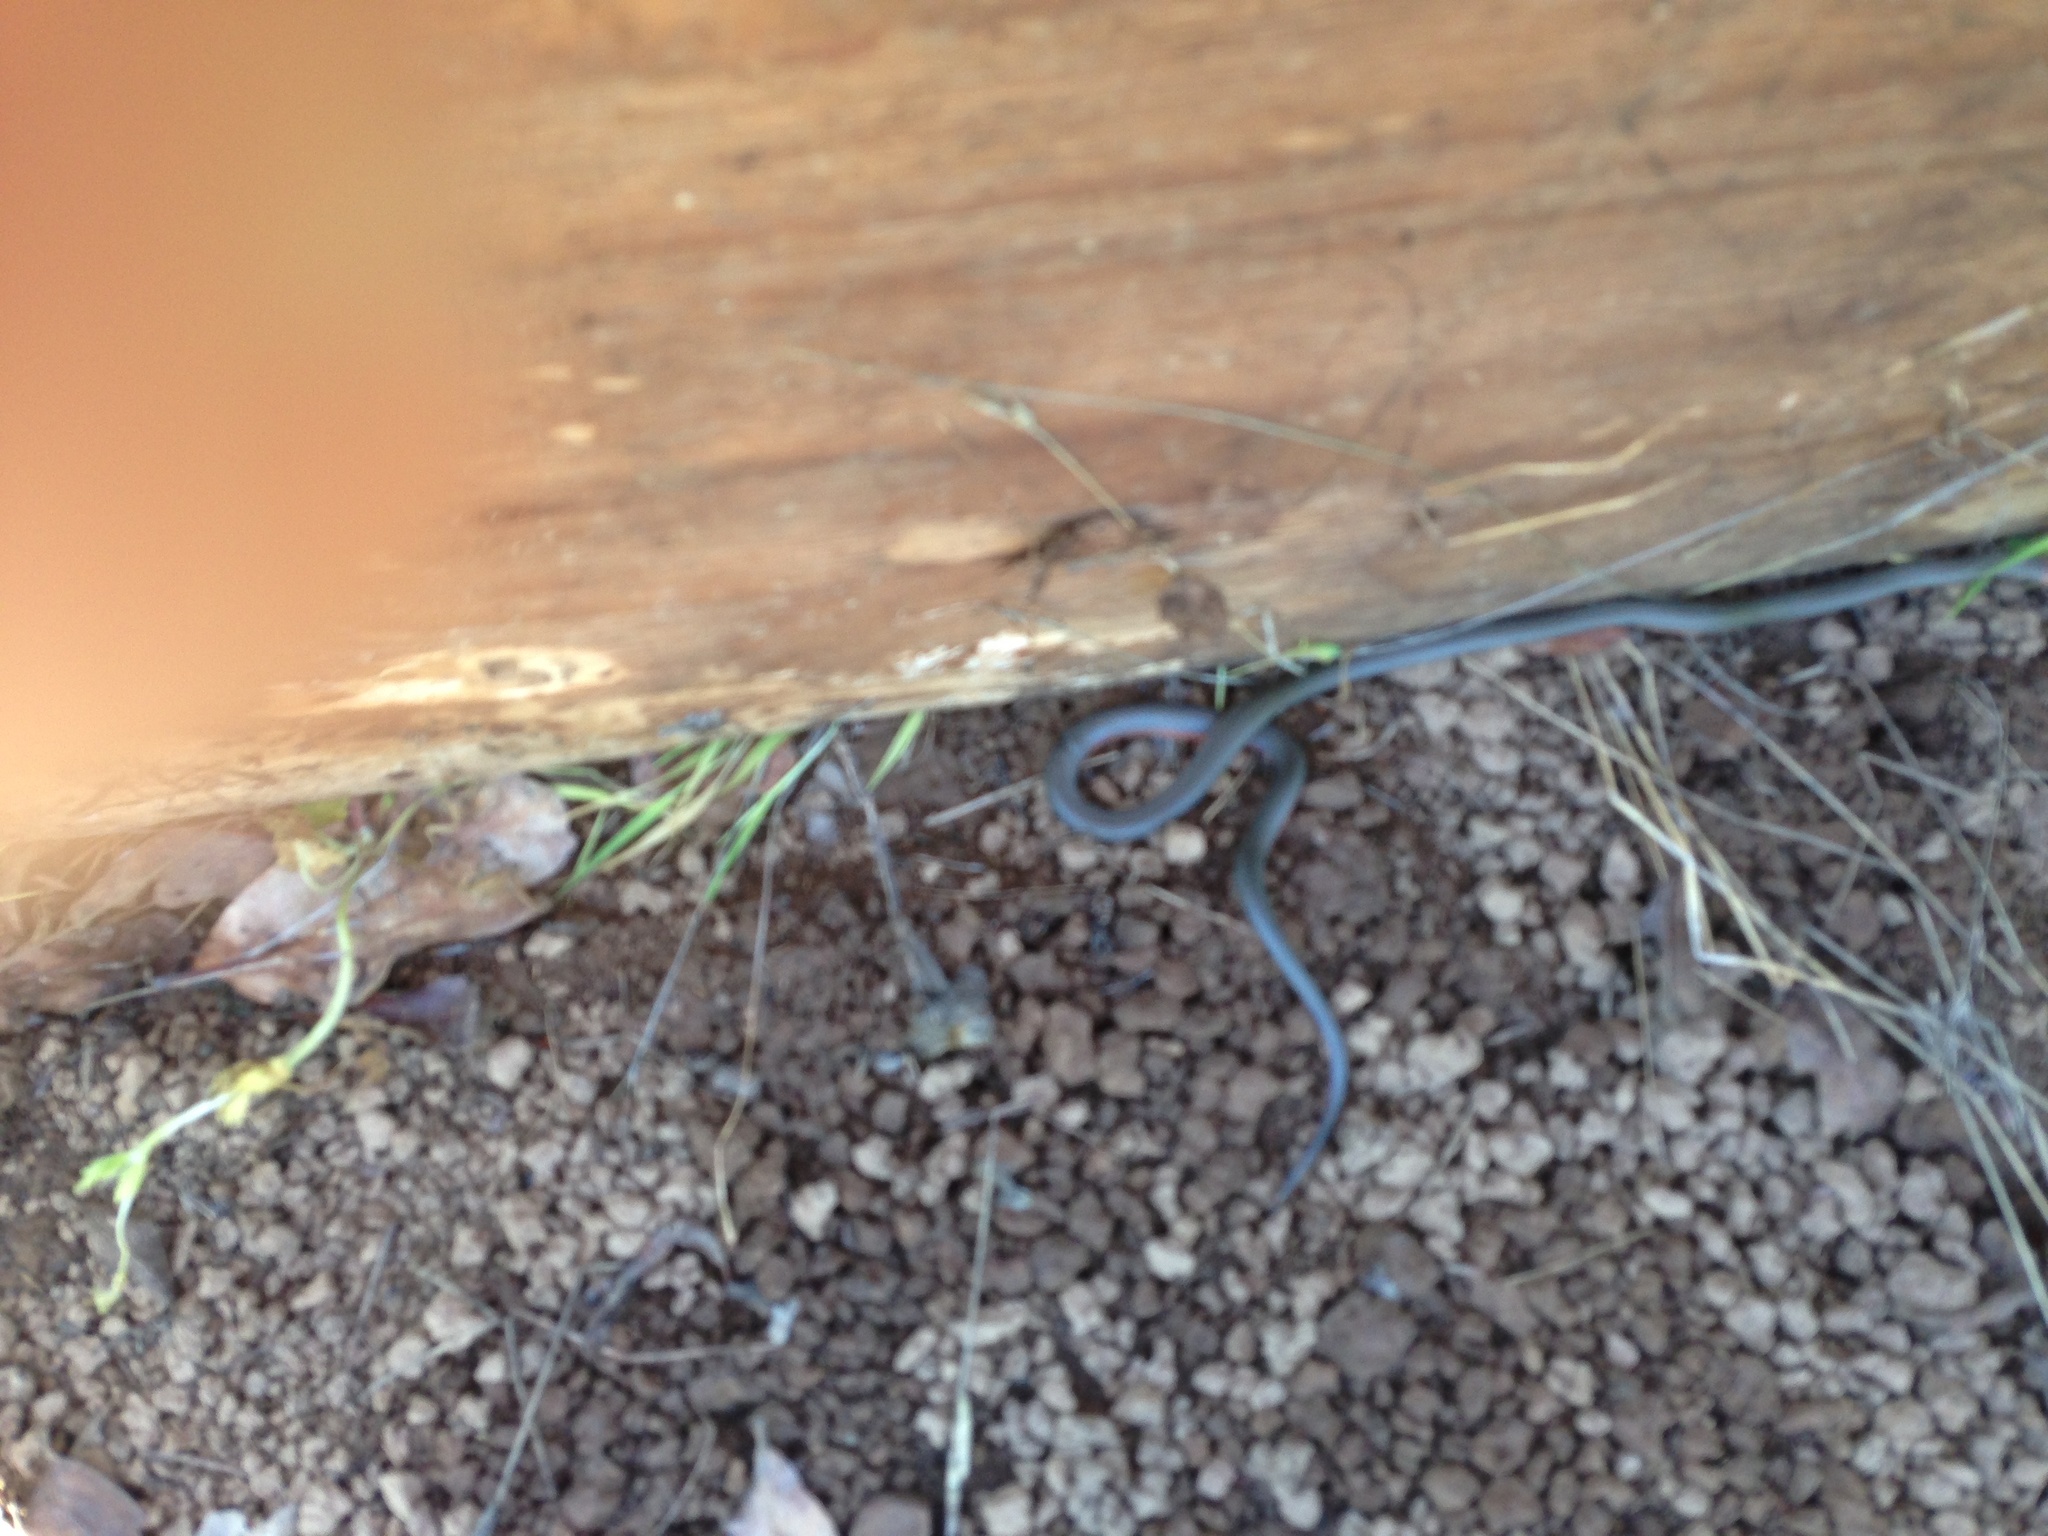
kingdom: Animalia
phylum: Chordata
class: Squamata
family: Colubridae
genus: Diadophis
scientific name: Diadophis punctatus
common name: Ringneck snake
